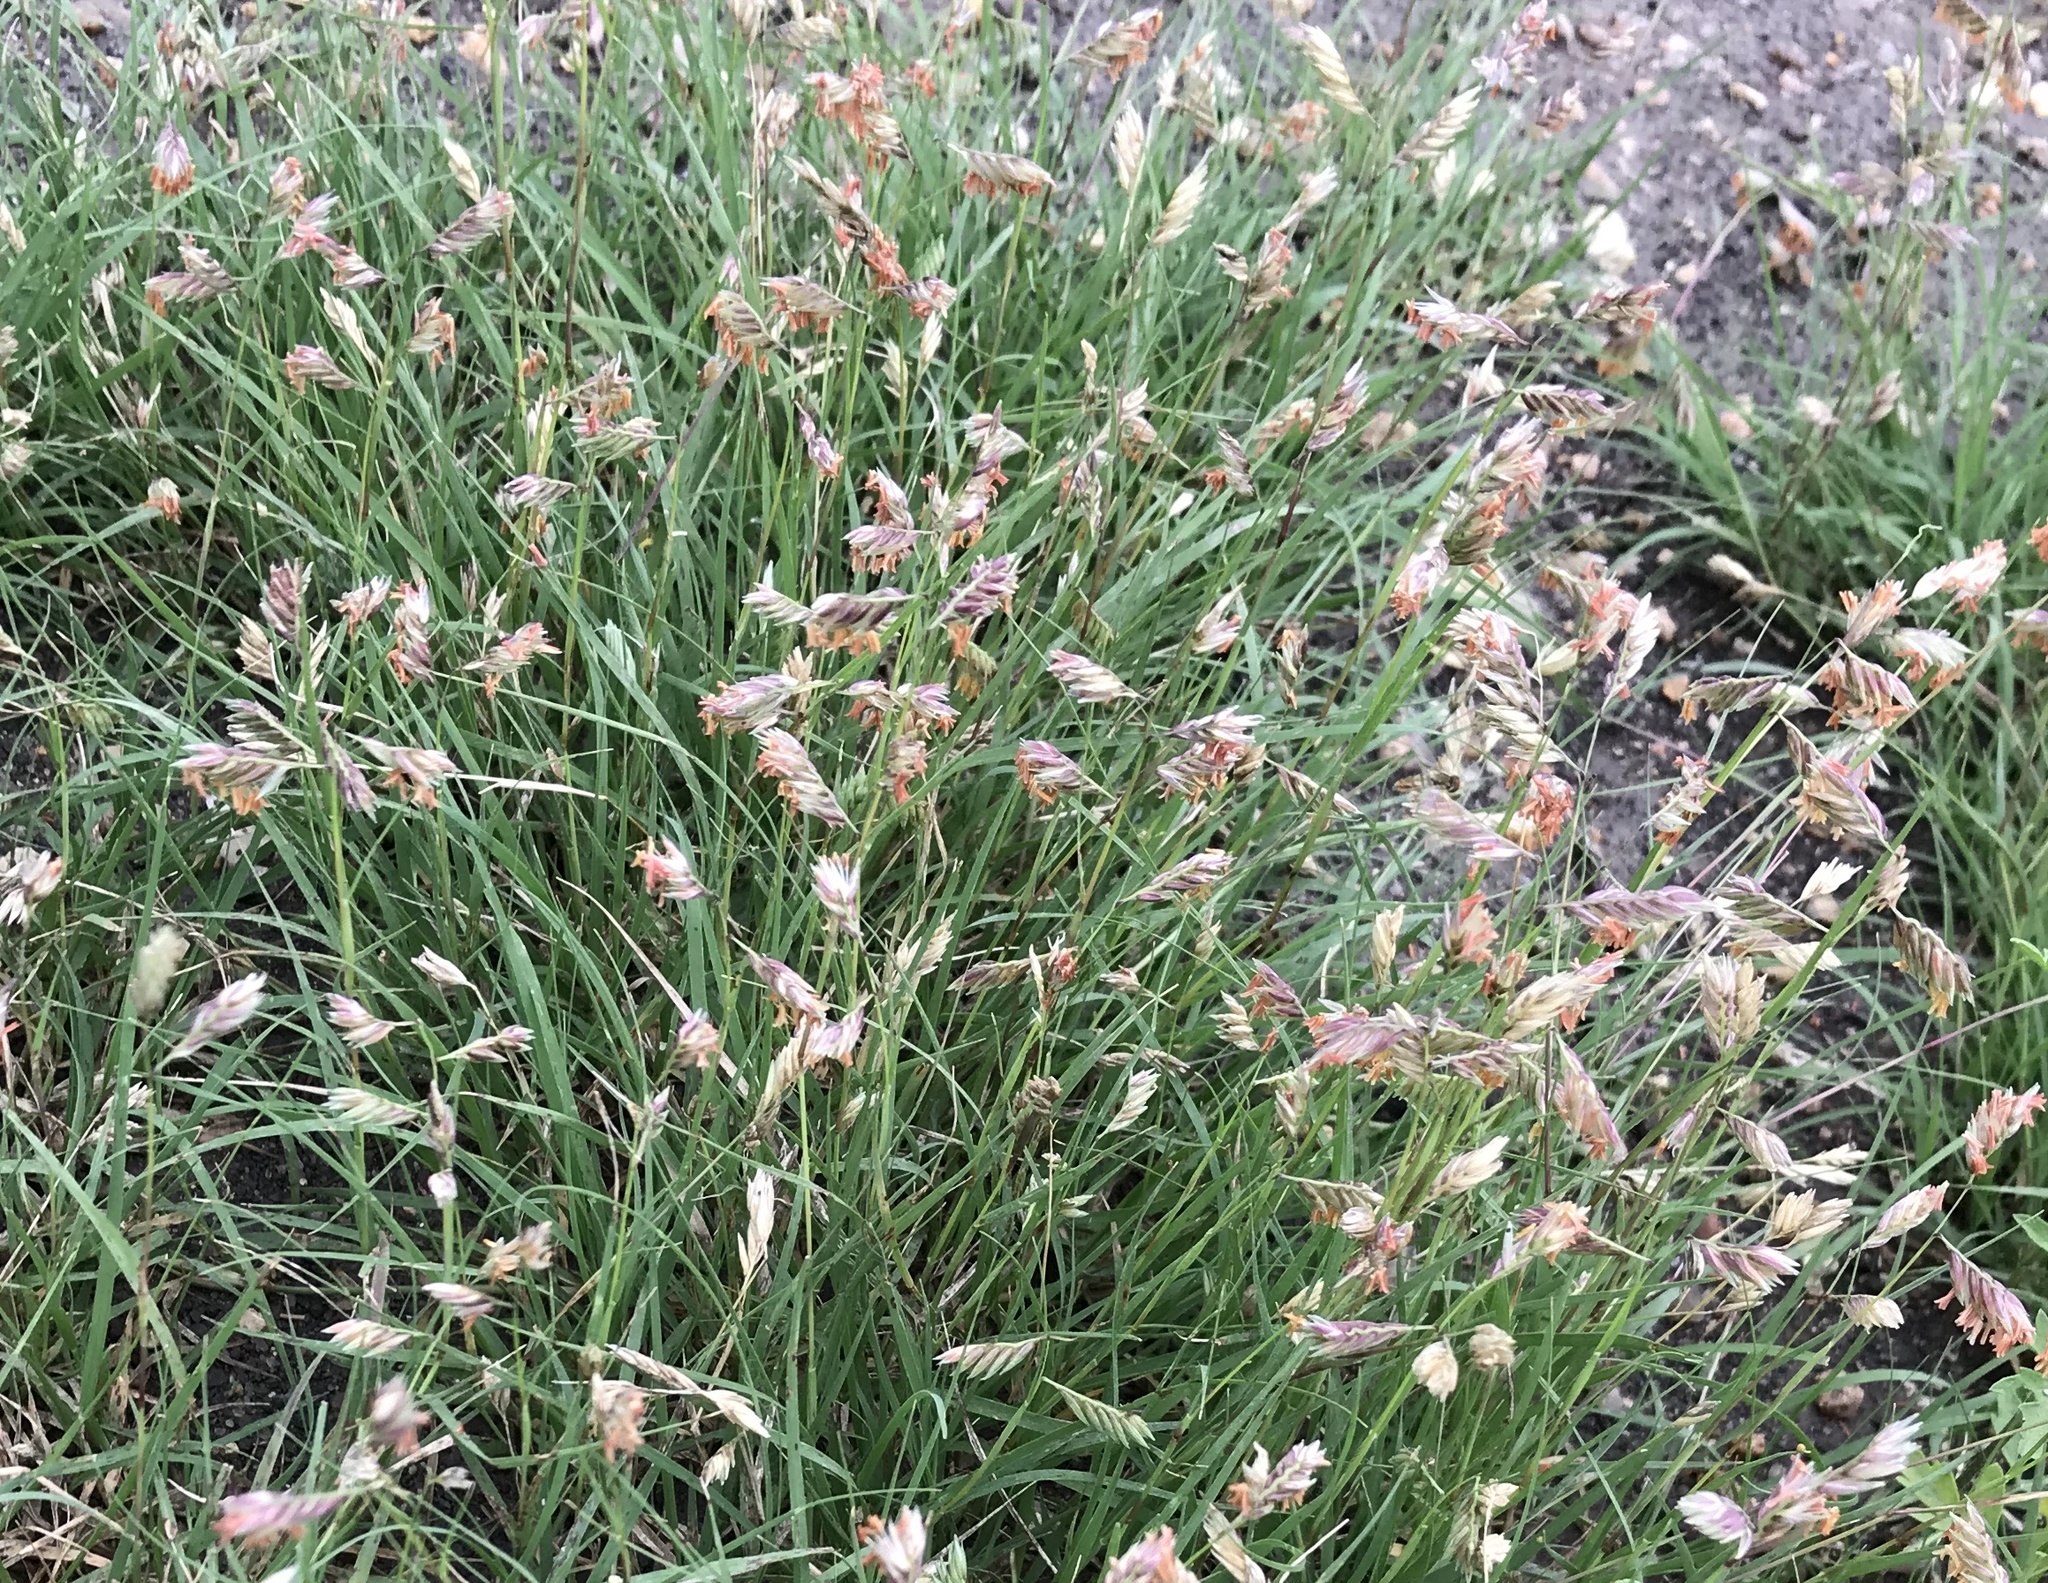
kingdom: Plantae
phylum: Tracheophyta
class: Liliopsida
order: Poales
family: Poaceae
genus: Bouteloua
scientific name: Bouteloua dactyloides
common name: Buffalo grass
